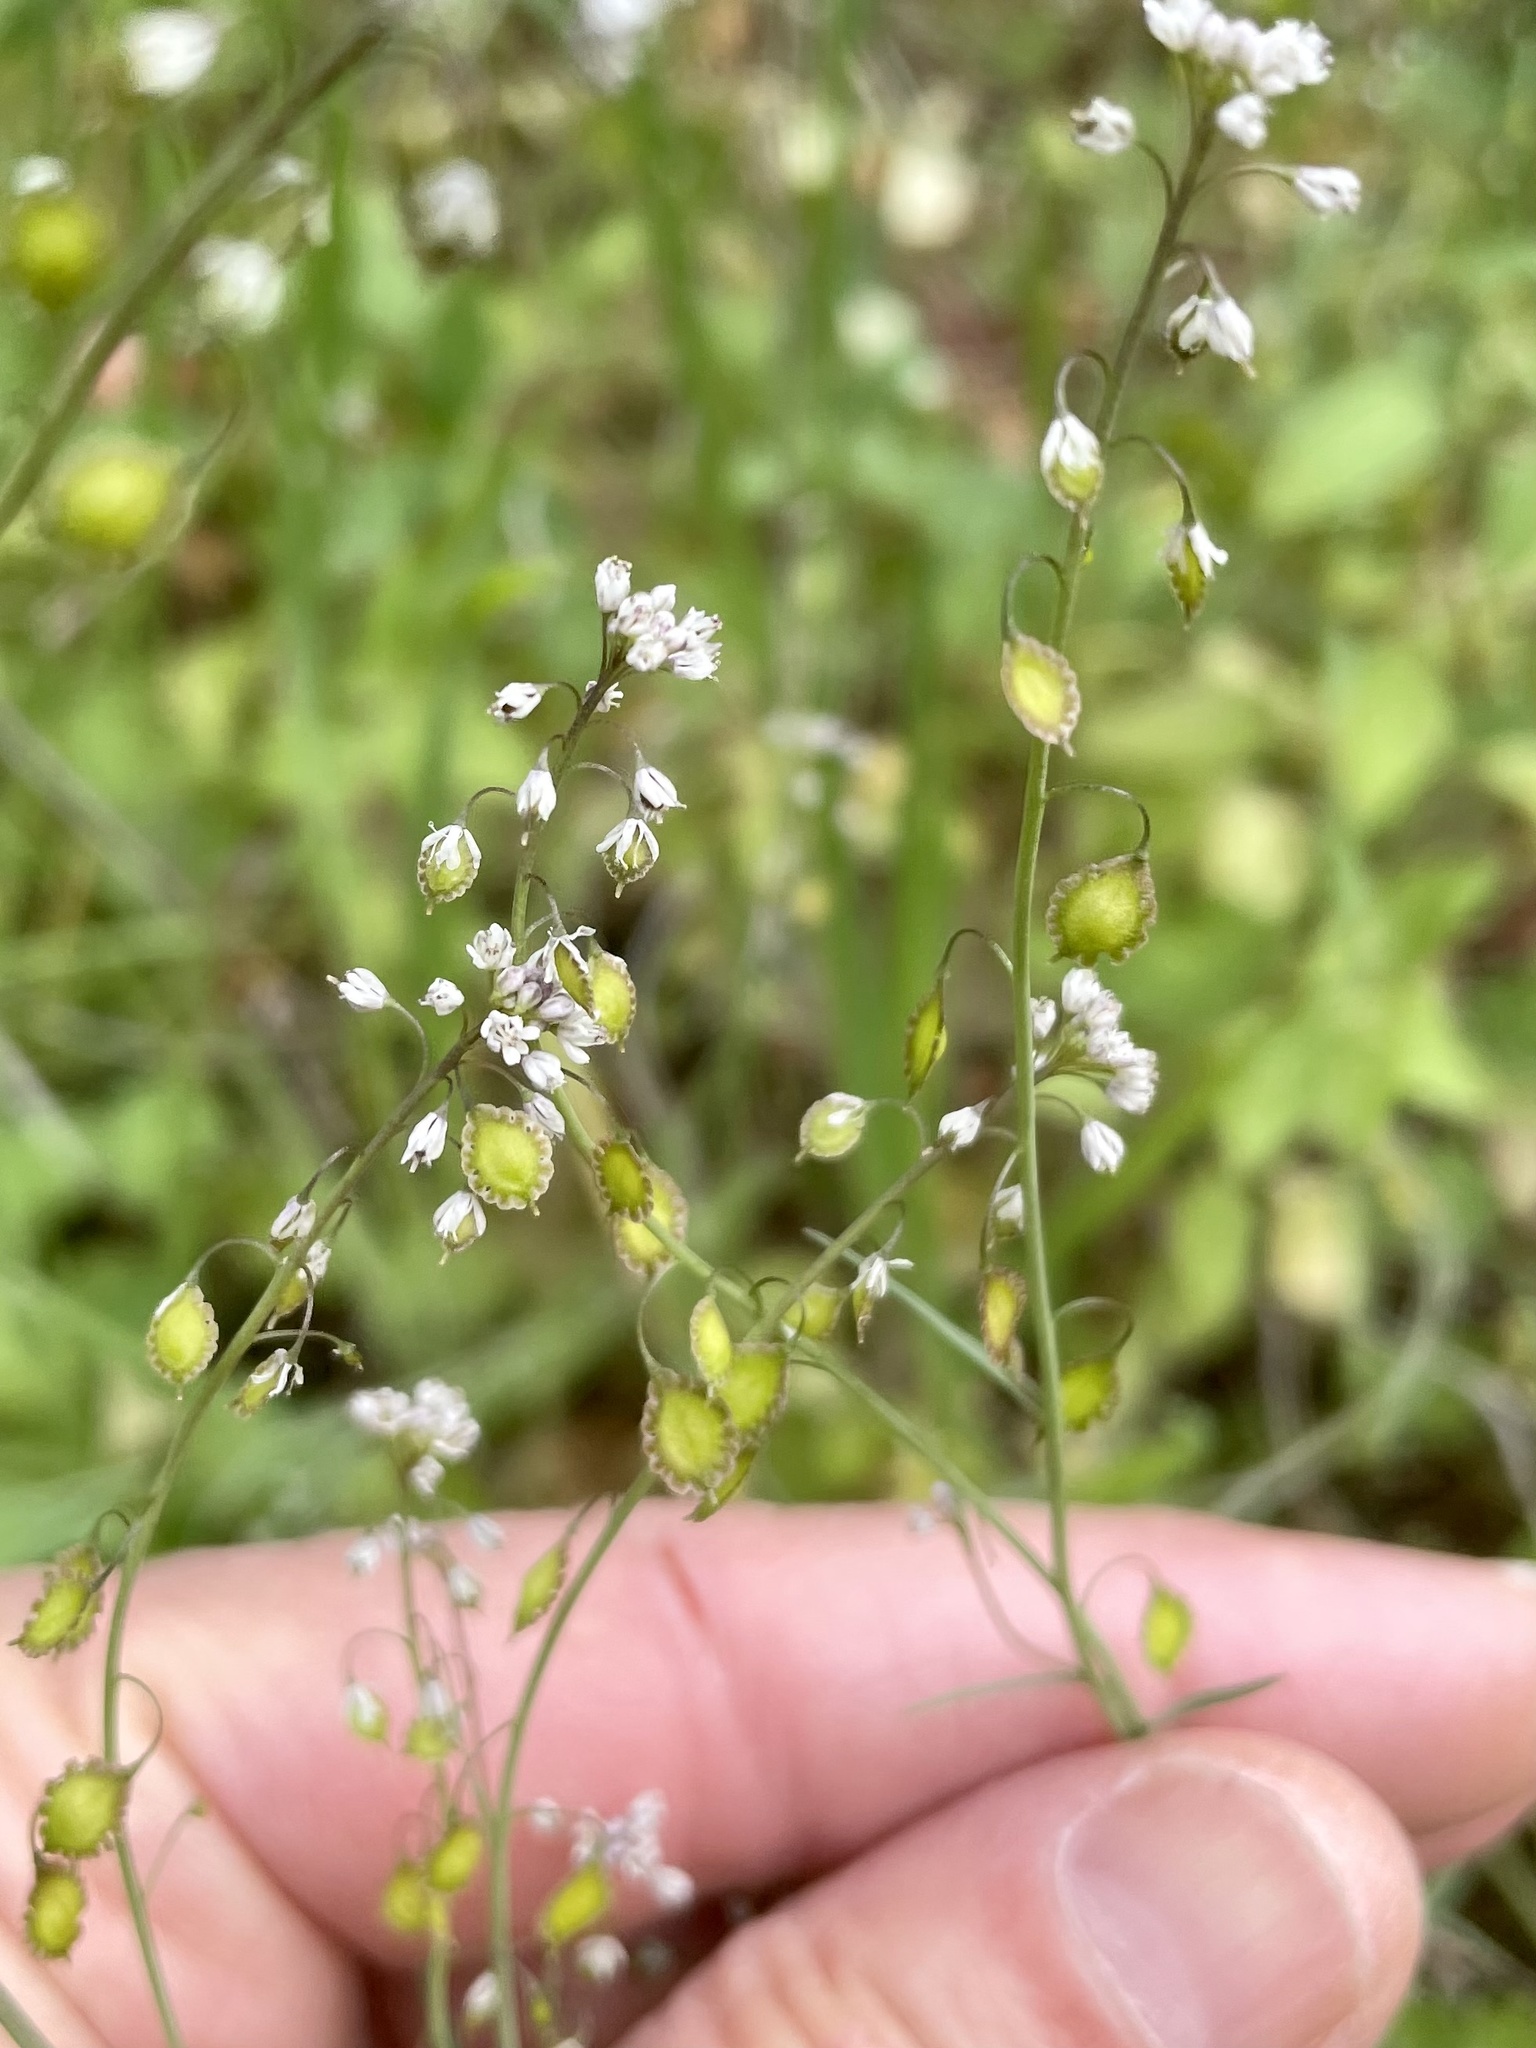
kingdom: Plantae
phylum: Tracheophyta
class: Magnoliopsida
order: Brassicales
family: Brassicaceae
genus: Thysanocarpus
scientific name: Thysanocarpus laciniatus
